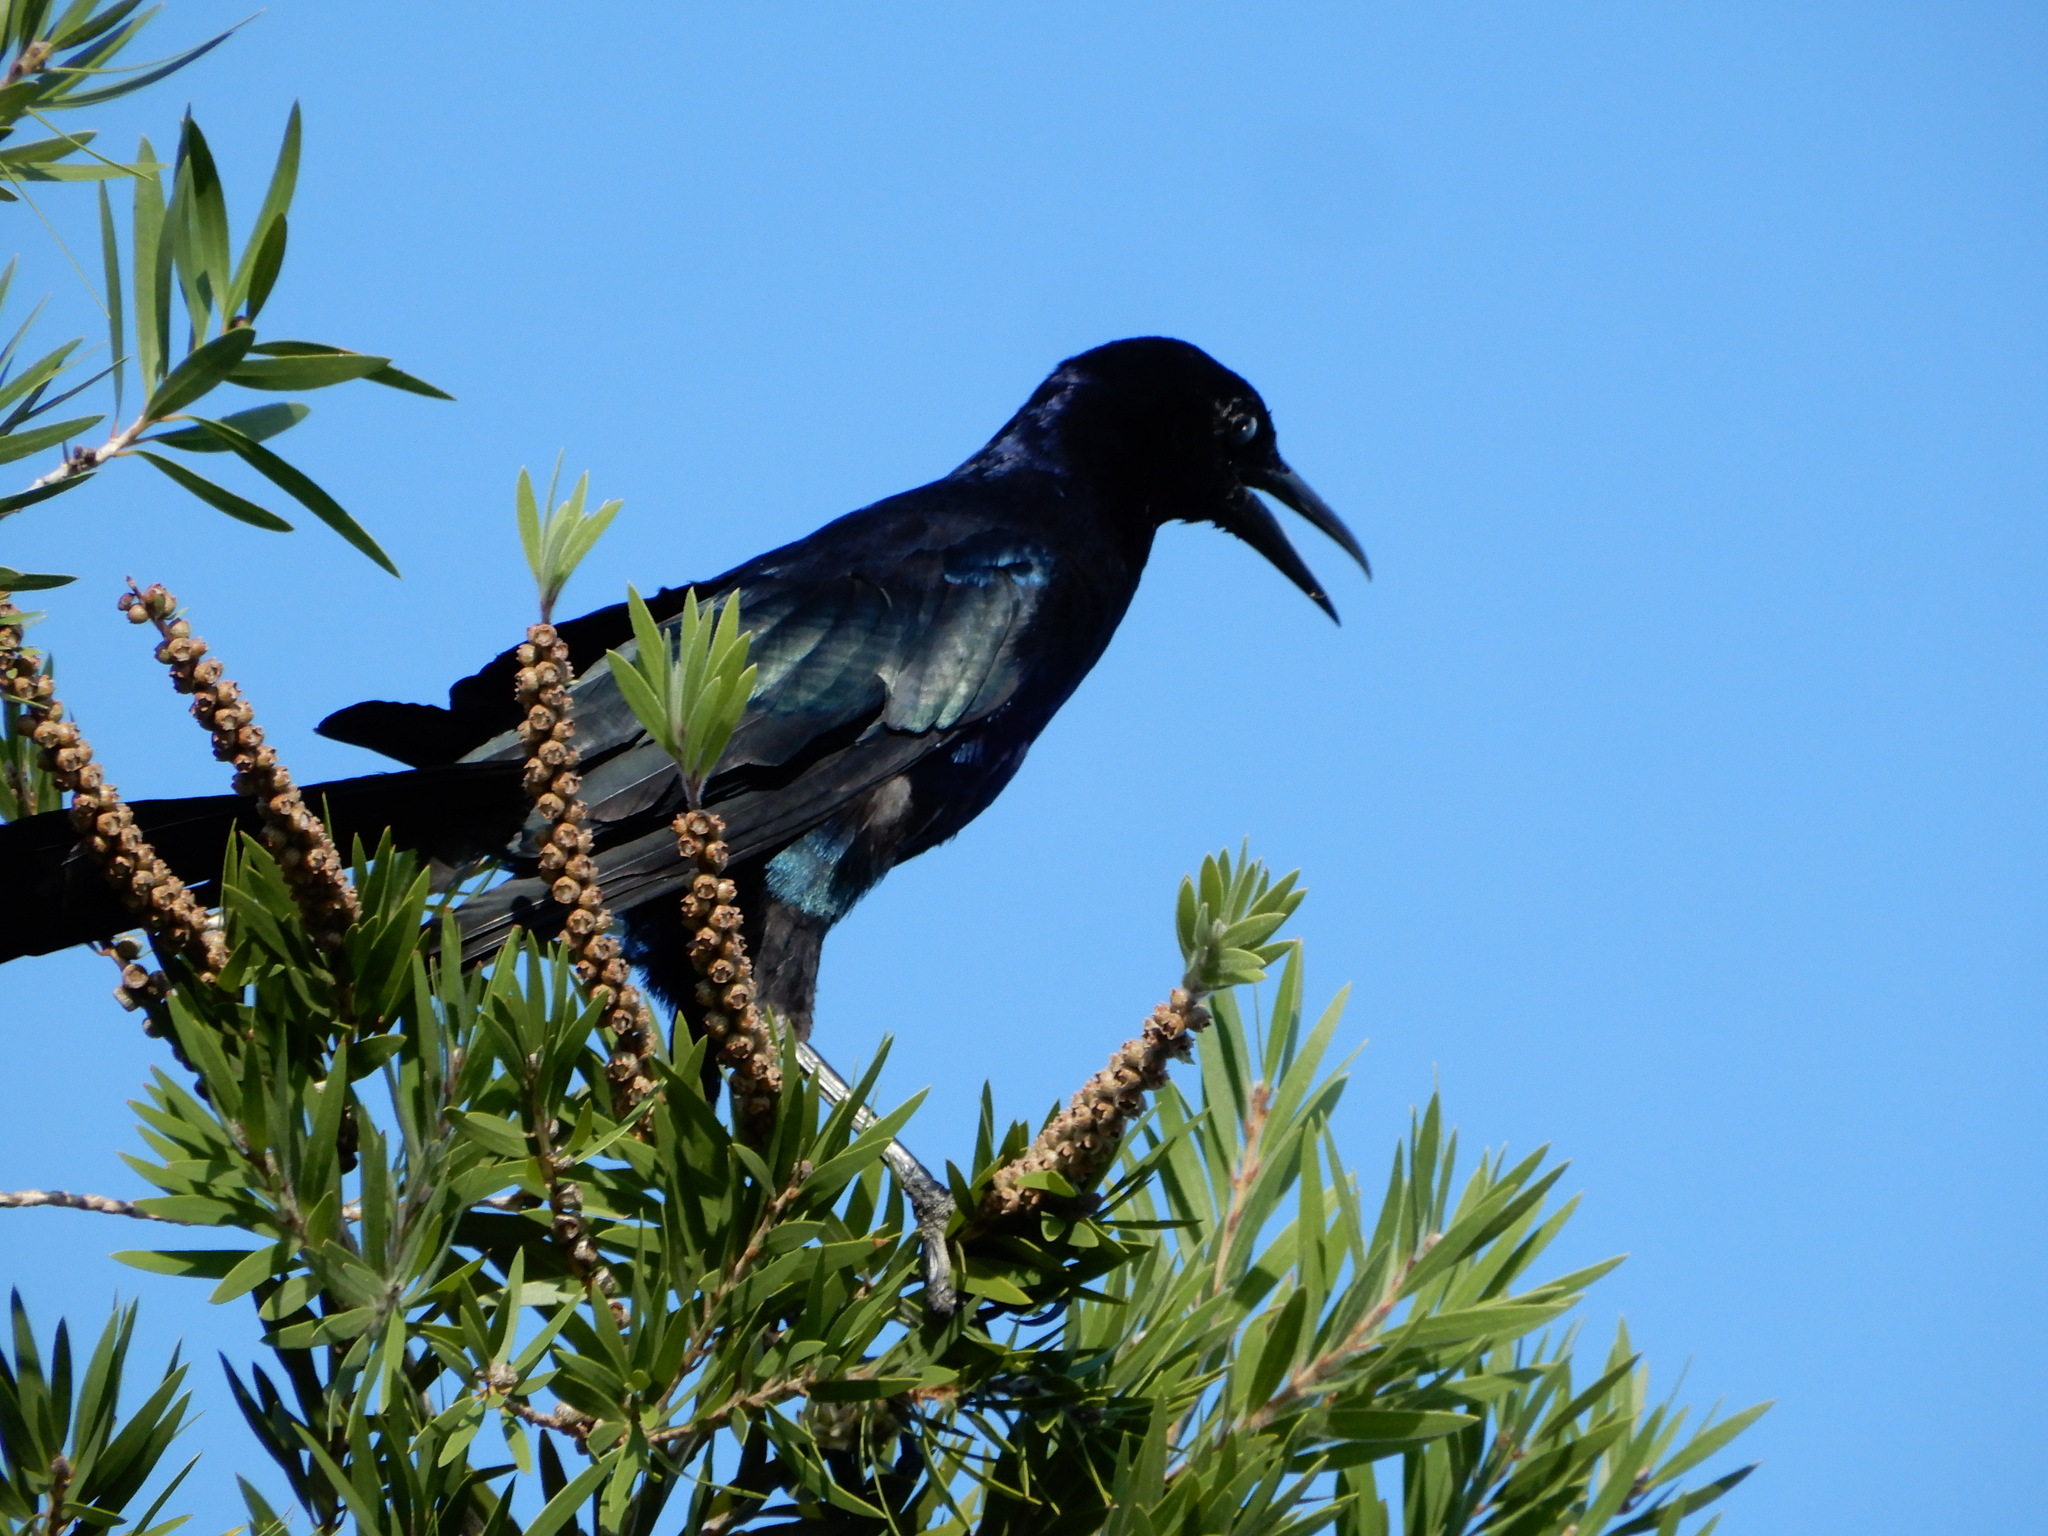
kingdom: Animalia
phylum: Chordata
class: Aves
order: Passeriformes
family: Icteridae
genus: Quiscalus
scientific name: Quiscalus major
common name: Boat-tailed grackle
